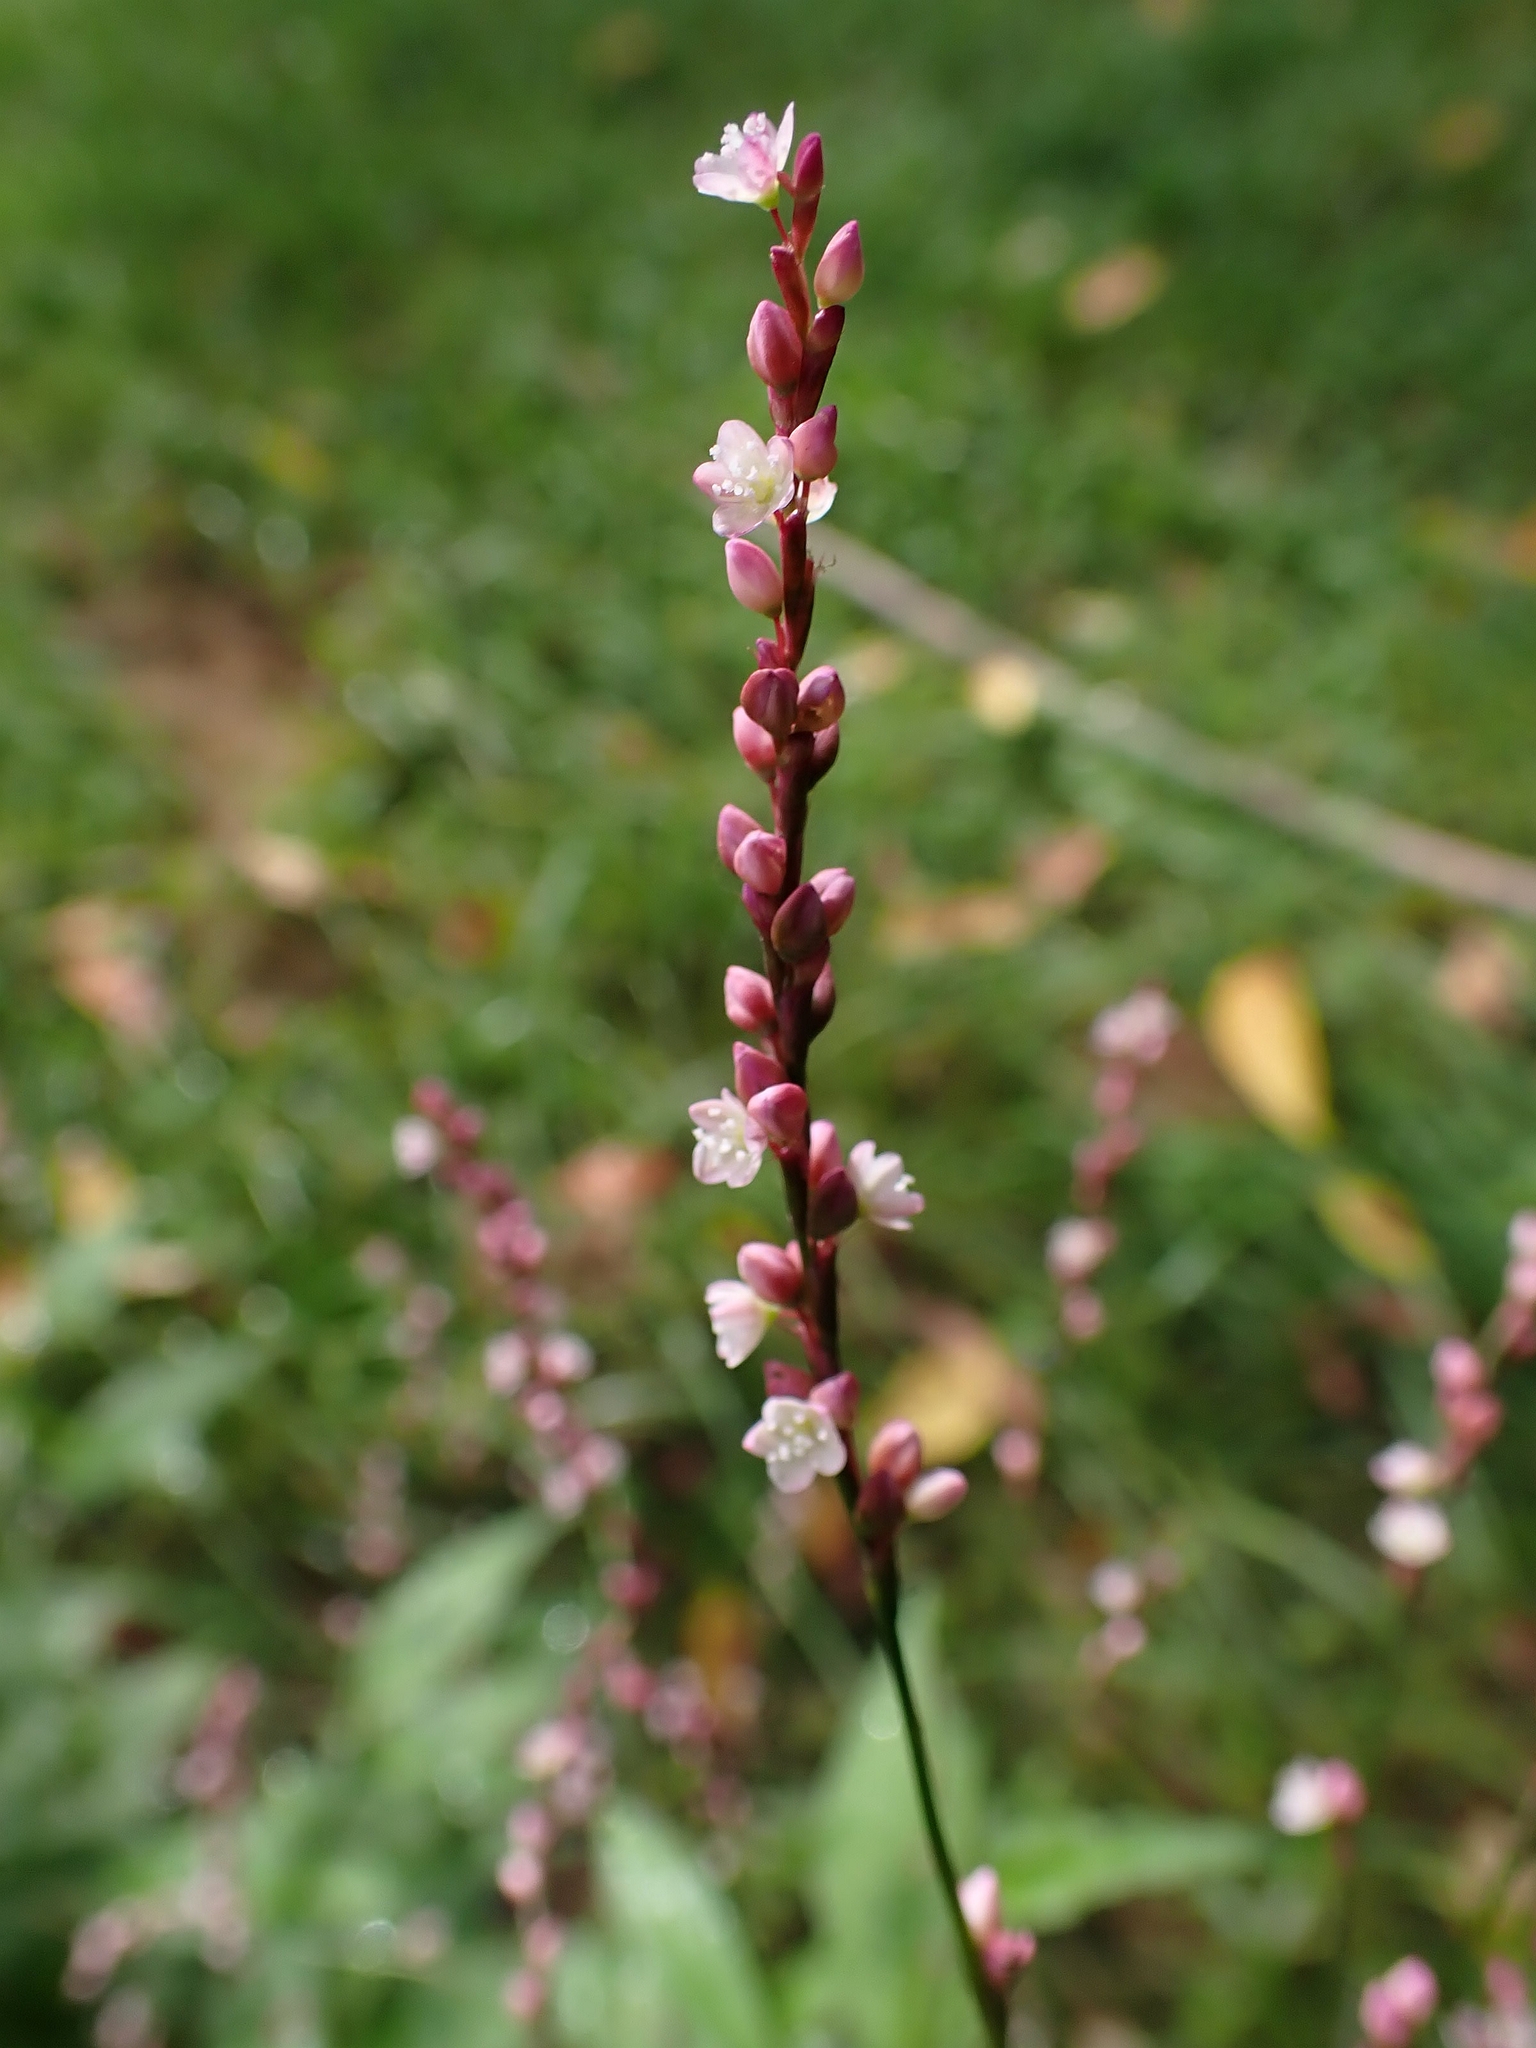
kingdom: Plantae
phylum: Tracheophyta
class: Magnoliopsida
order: Caryophyllales
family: Polygonaceae
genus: Persicaria
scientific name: Persicaria posumbu
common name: Oriental lady's thumb
